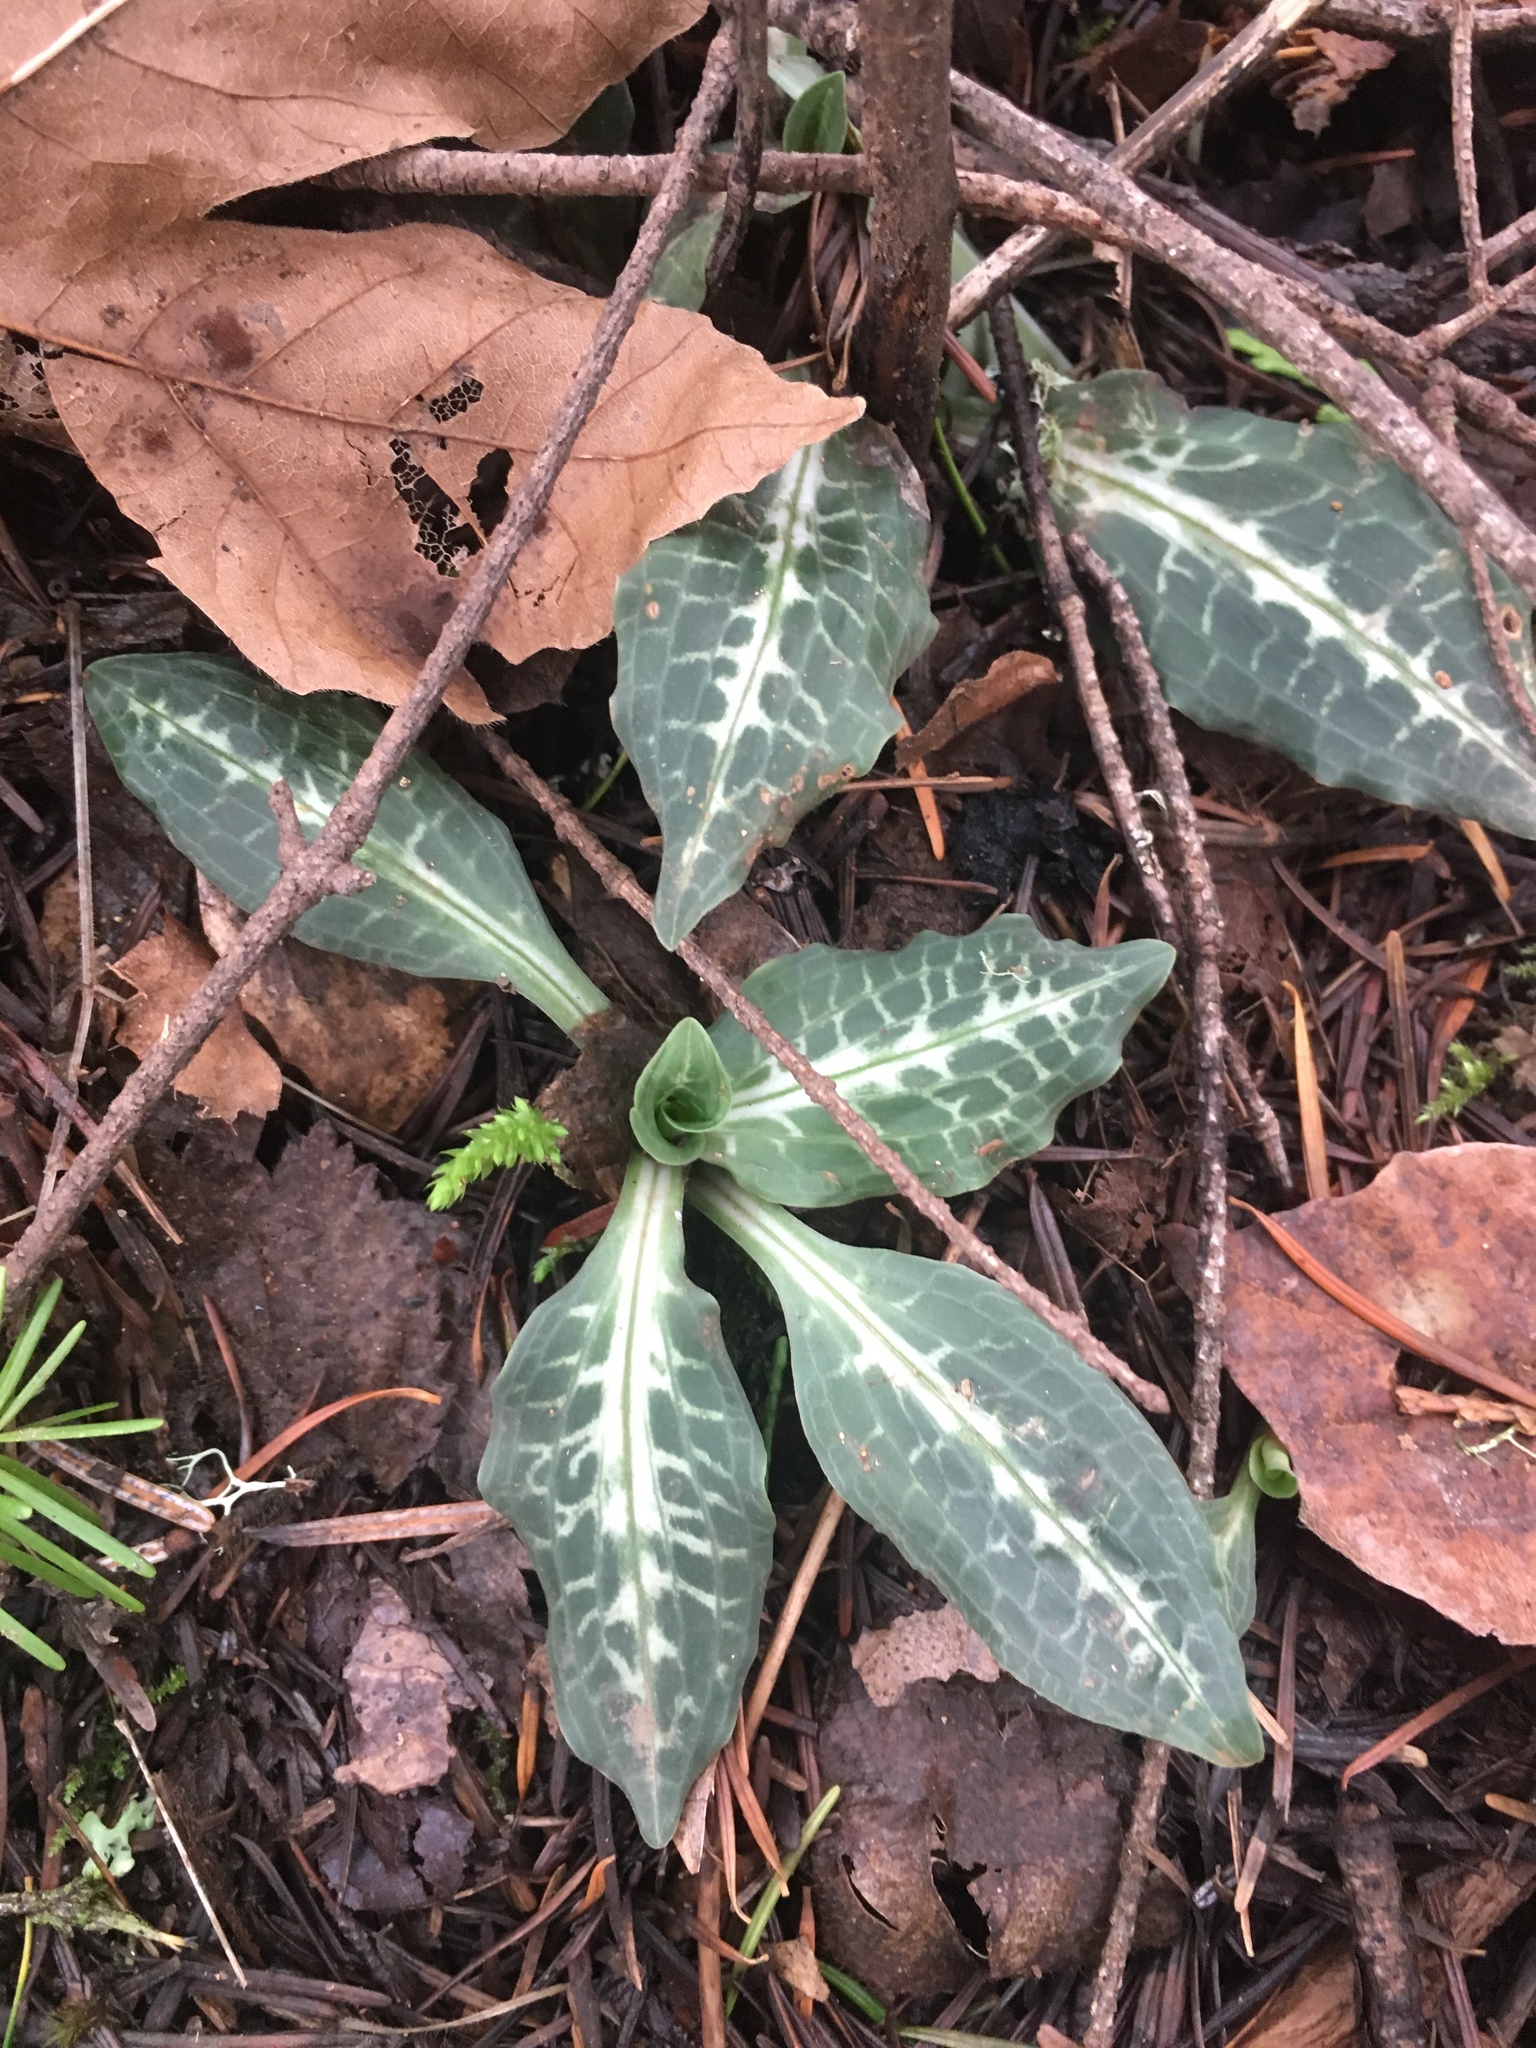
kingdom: Plantae
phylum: Tracheophyta
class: Liliopsida
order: Asparagales
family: Orchidaceae
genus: Goodyera
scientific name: Goodyera oblongifolia
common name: Giant rattlesnake-plantain
